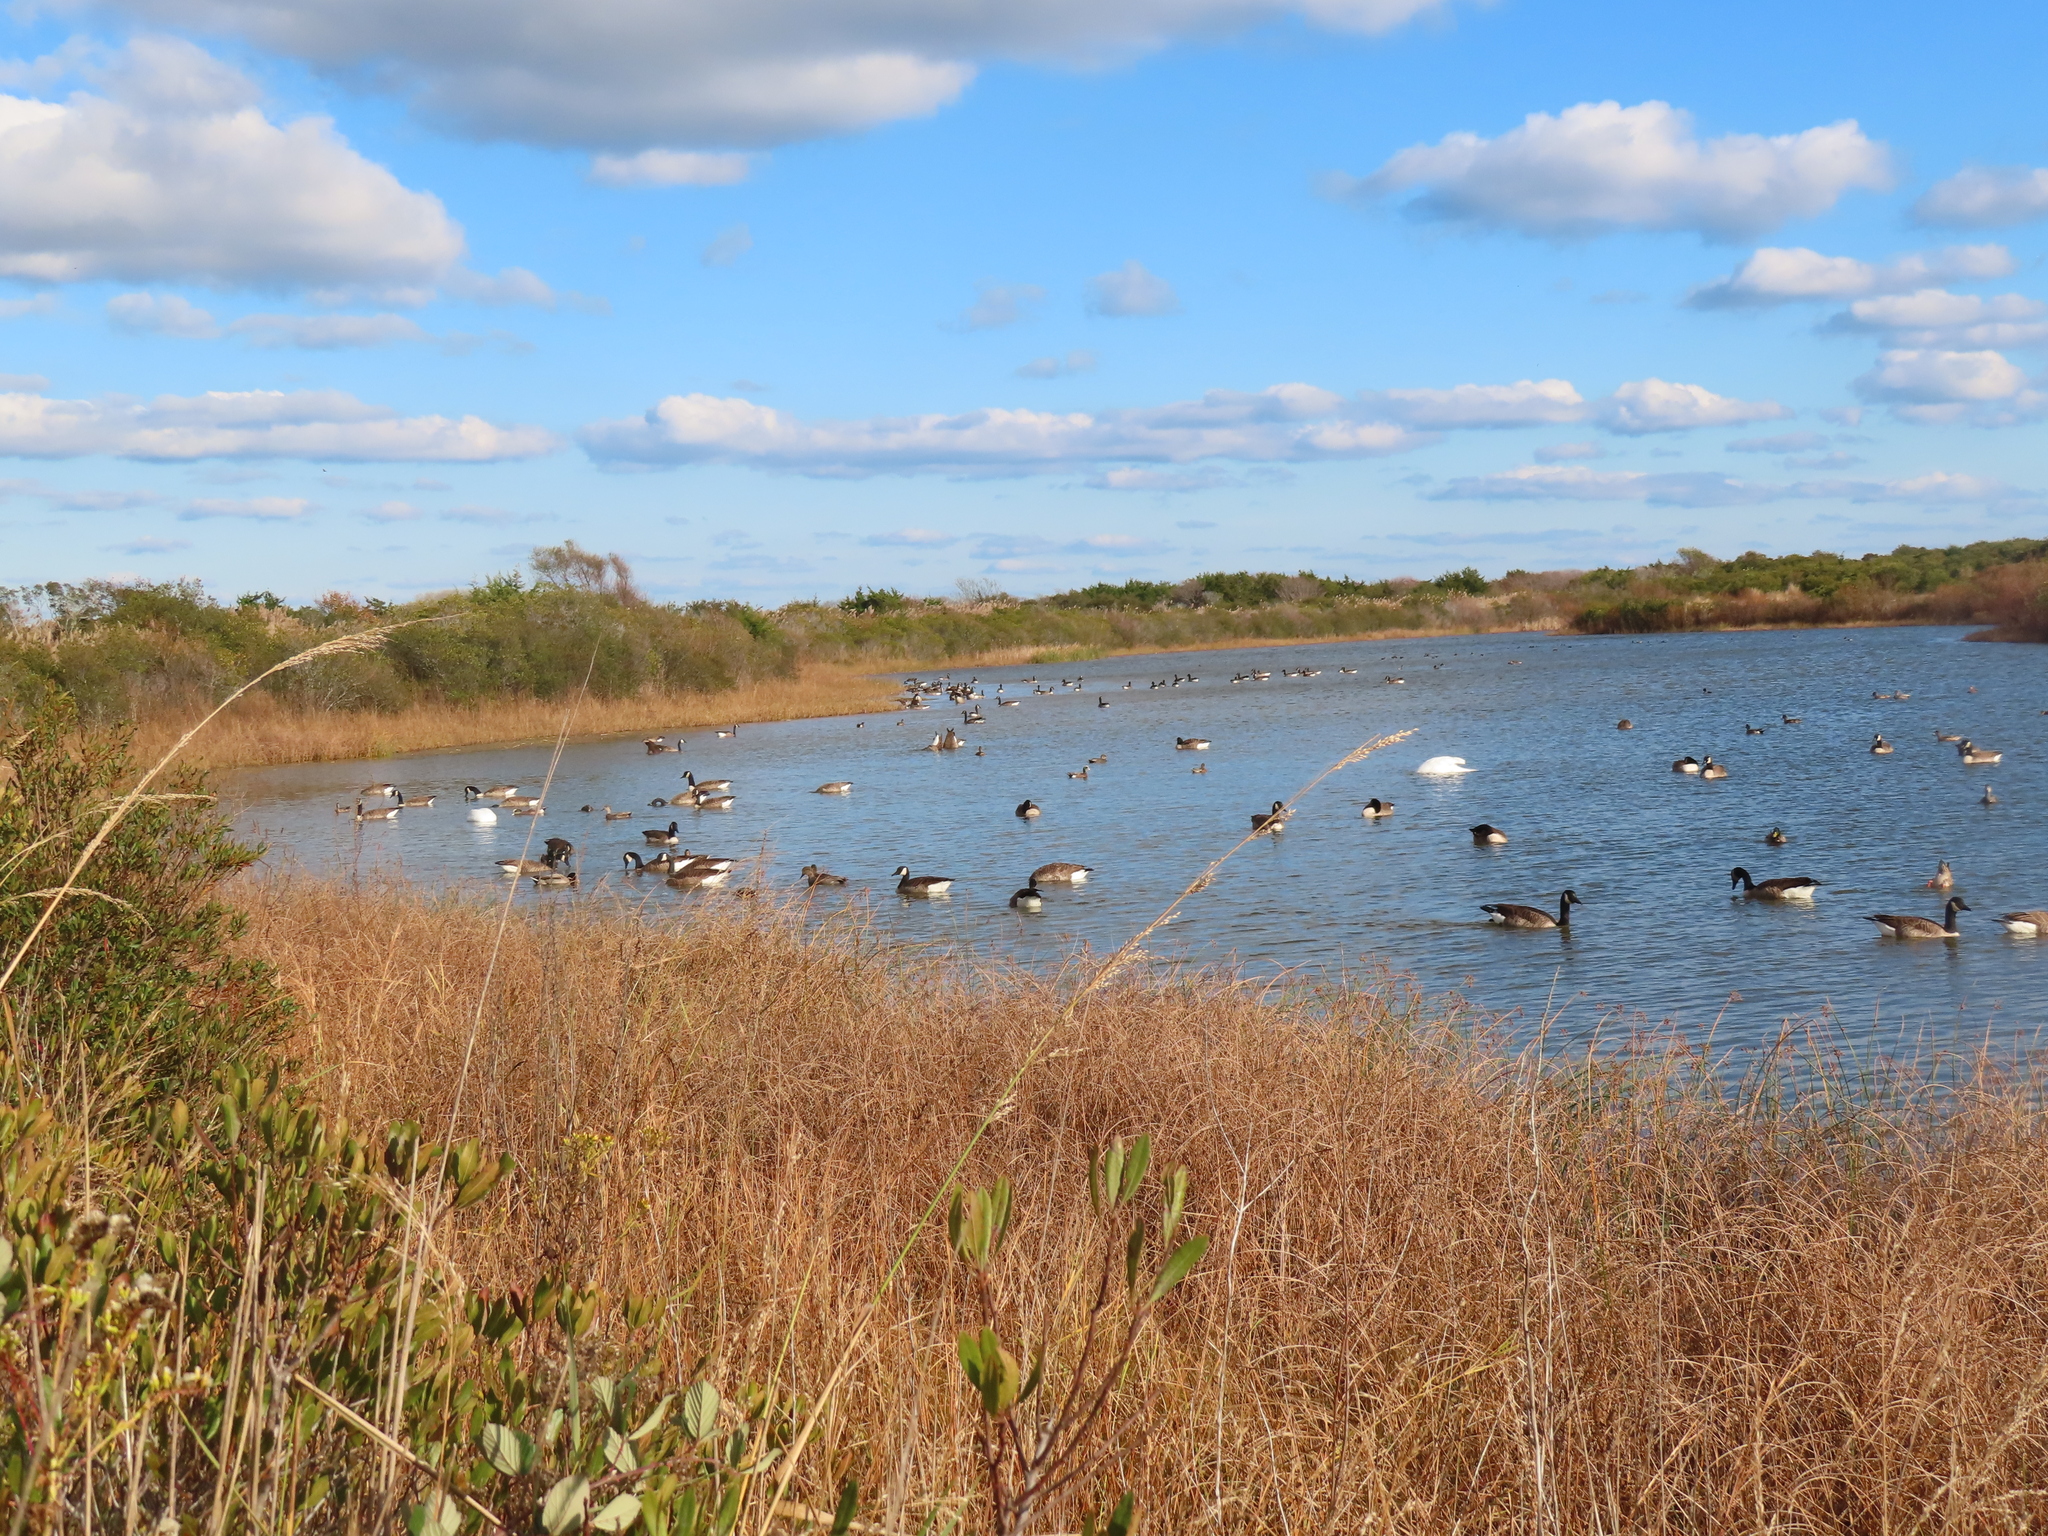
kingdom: Animalia
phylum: Chordata
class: Aves
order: Anseriformes
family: Anatidae
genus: Branta
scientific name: Branta canadensis
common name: Canada goose
